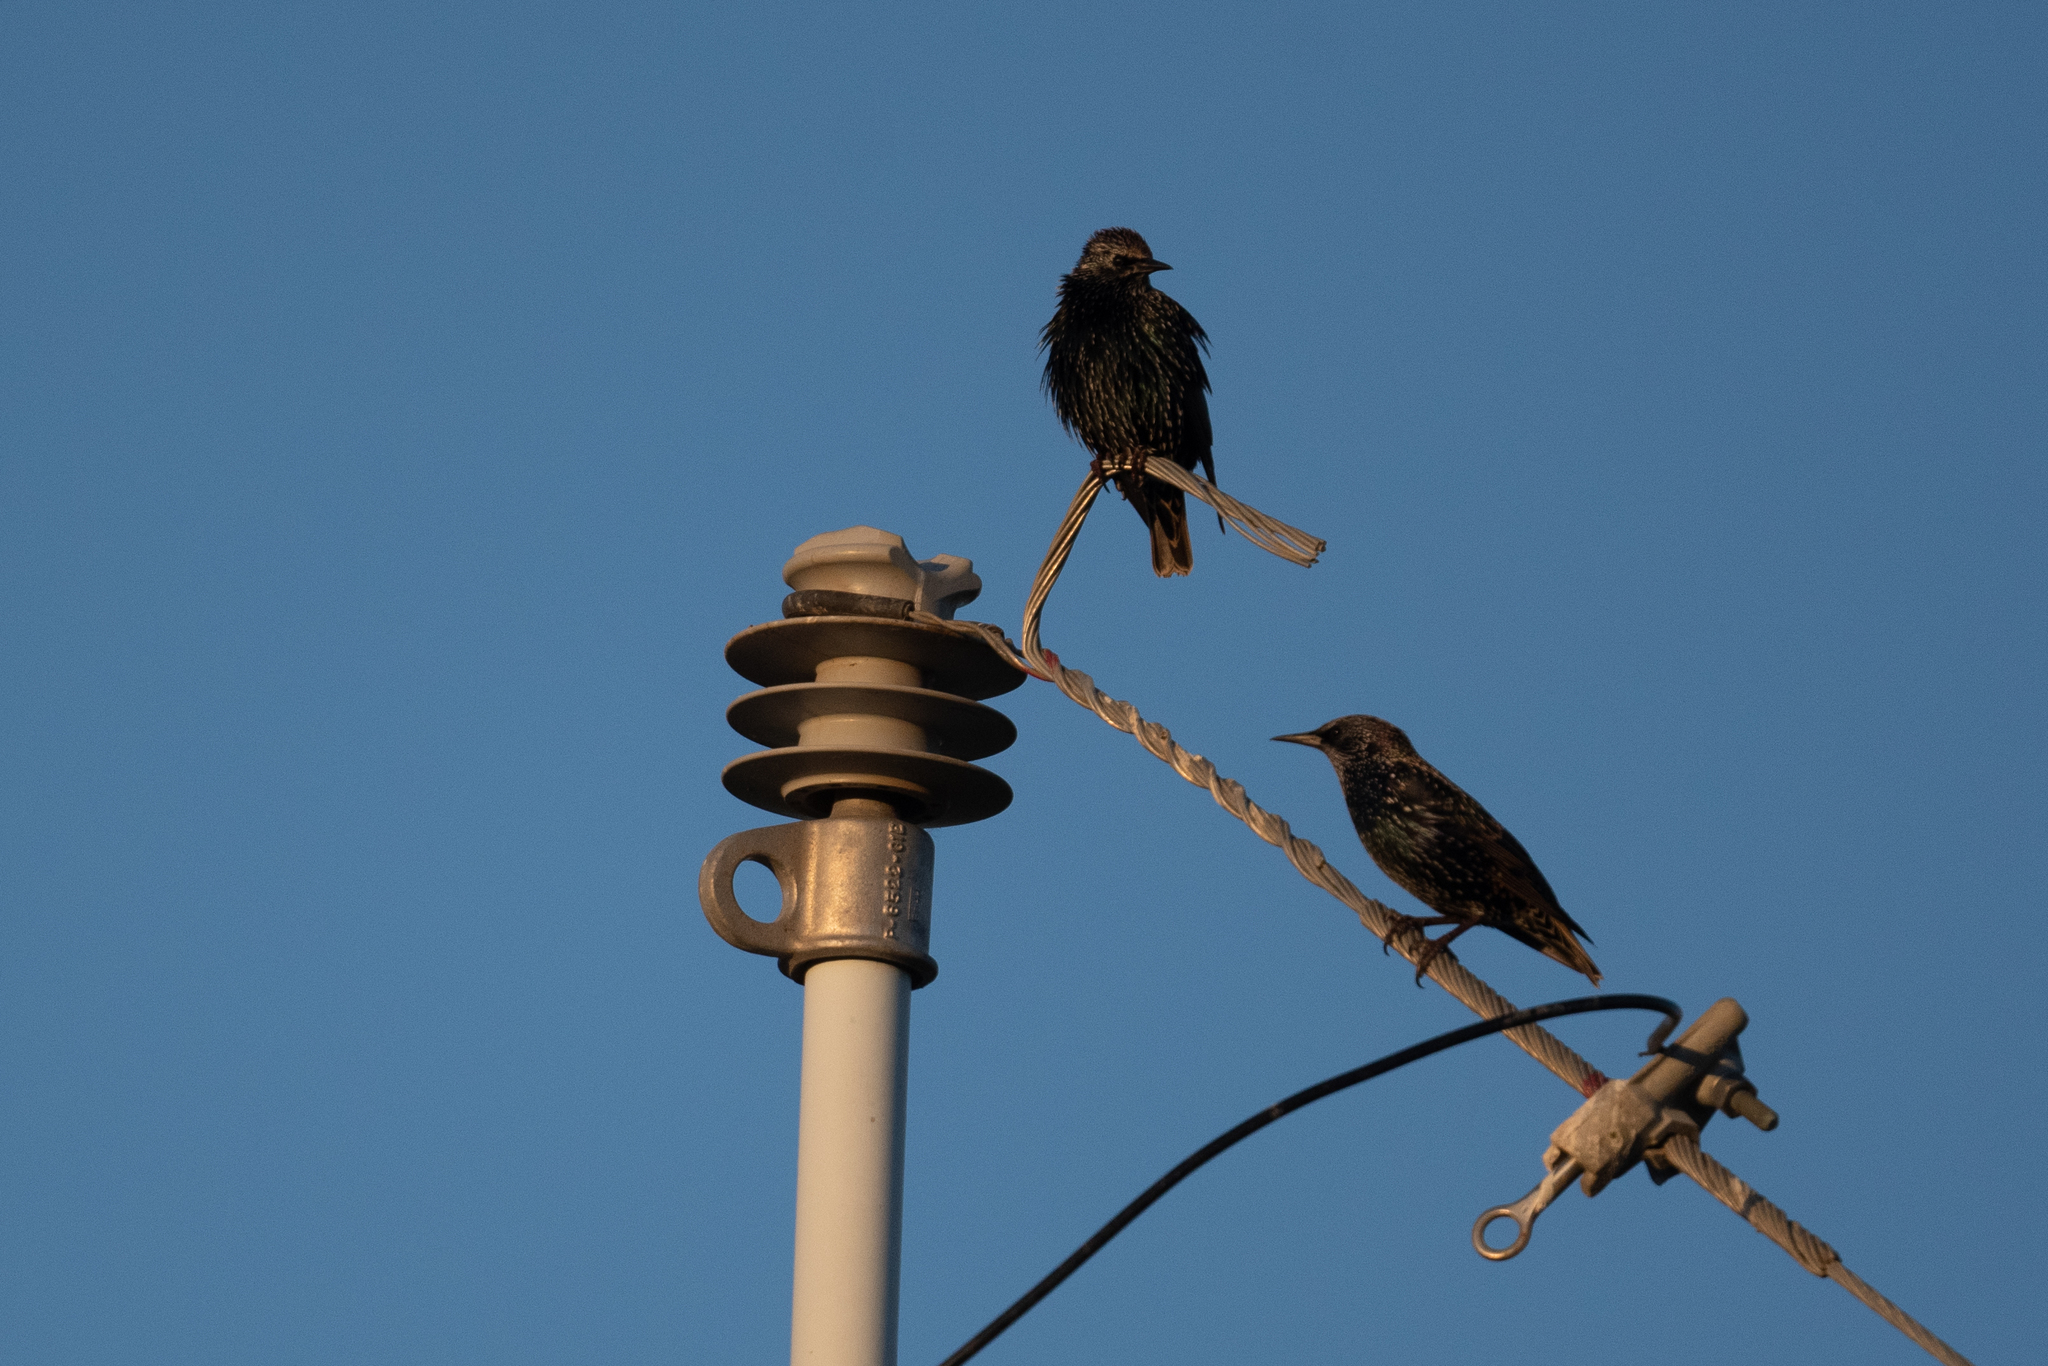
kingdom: Animalia
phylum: Chordata
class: Aves
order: Passeriformes
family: Sturnidae
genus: Sturnus
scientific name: Sturnus vulgaris
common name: Common starling
